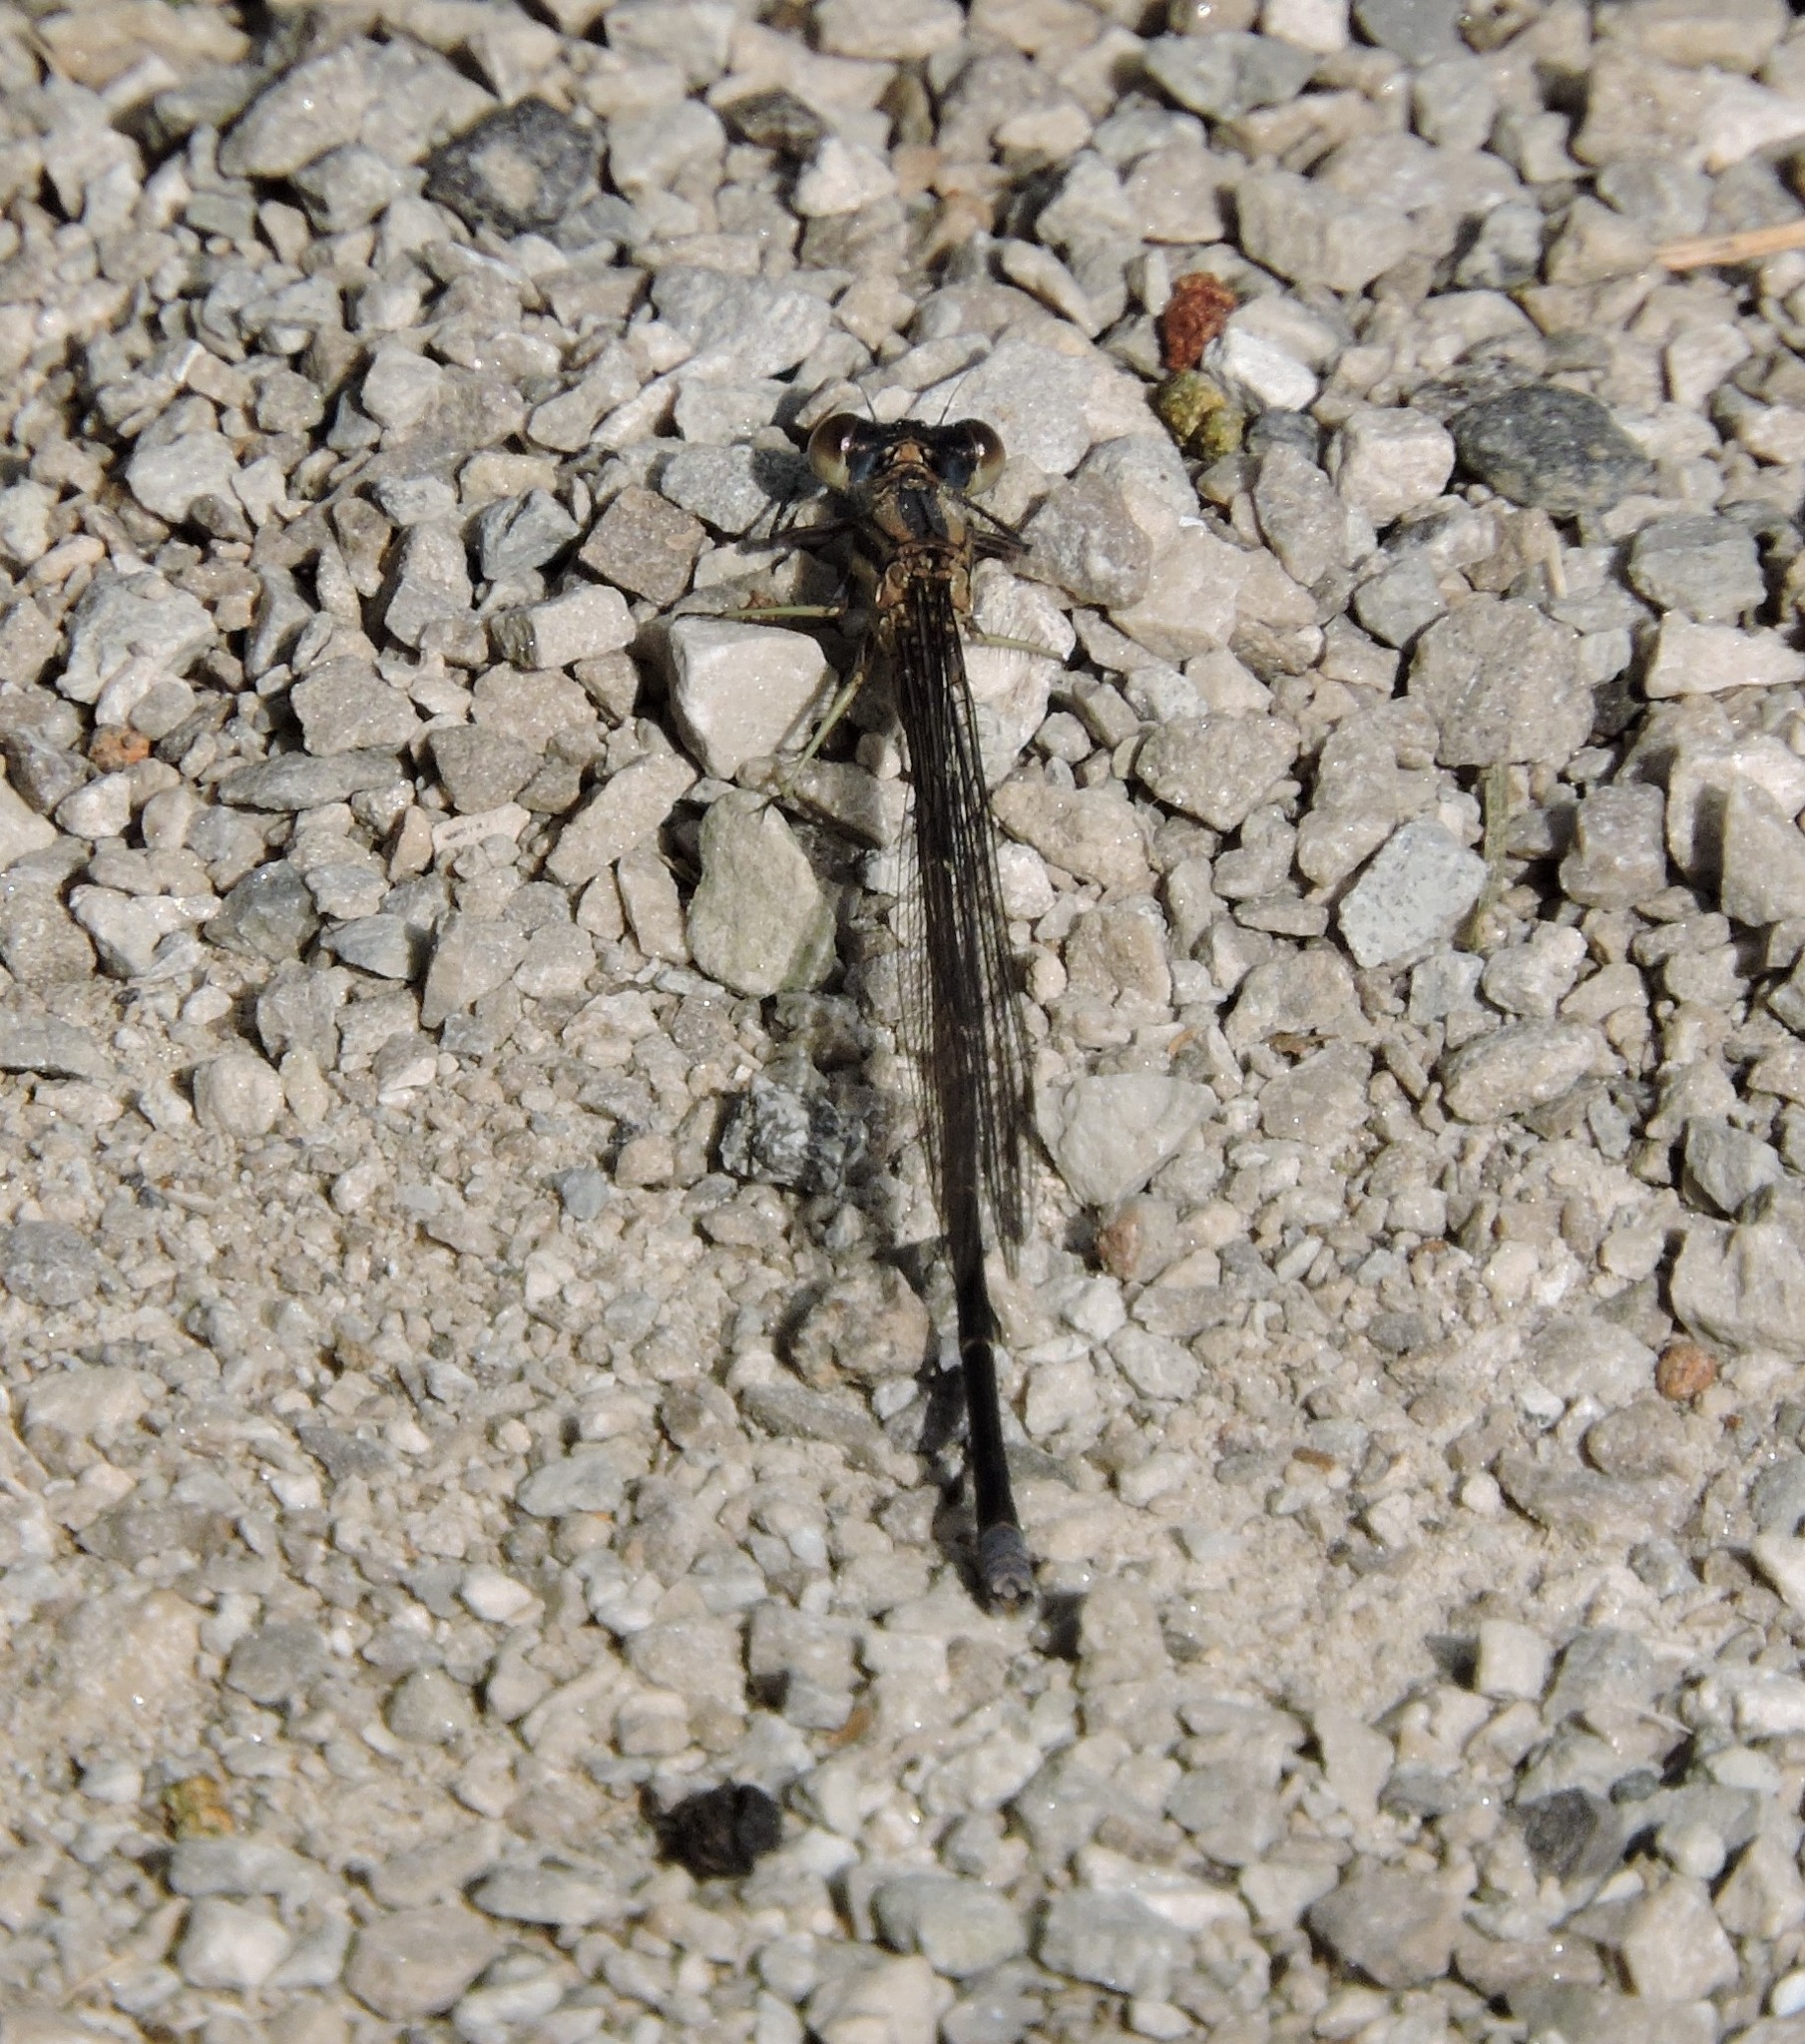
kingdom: Animalia
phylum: Arthropoda
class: Insecta
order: Odonata
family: Coenagrionidae
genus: Argia
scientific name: Argia moesta
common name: Powdered dancer
